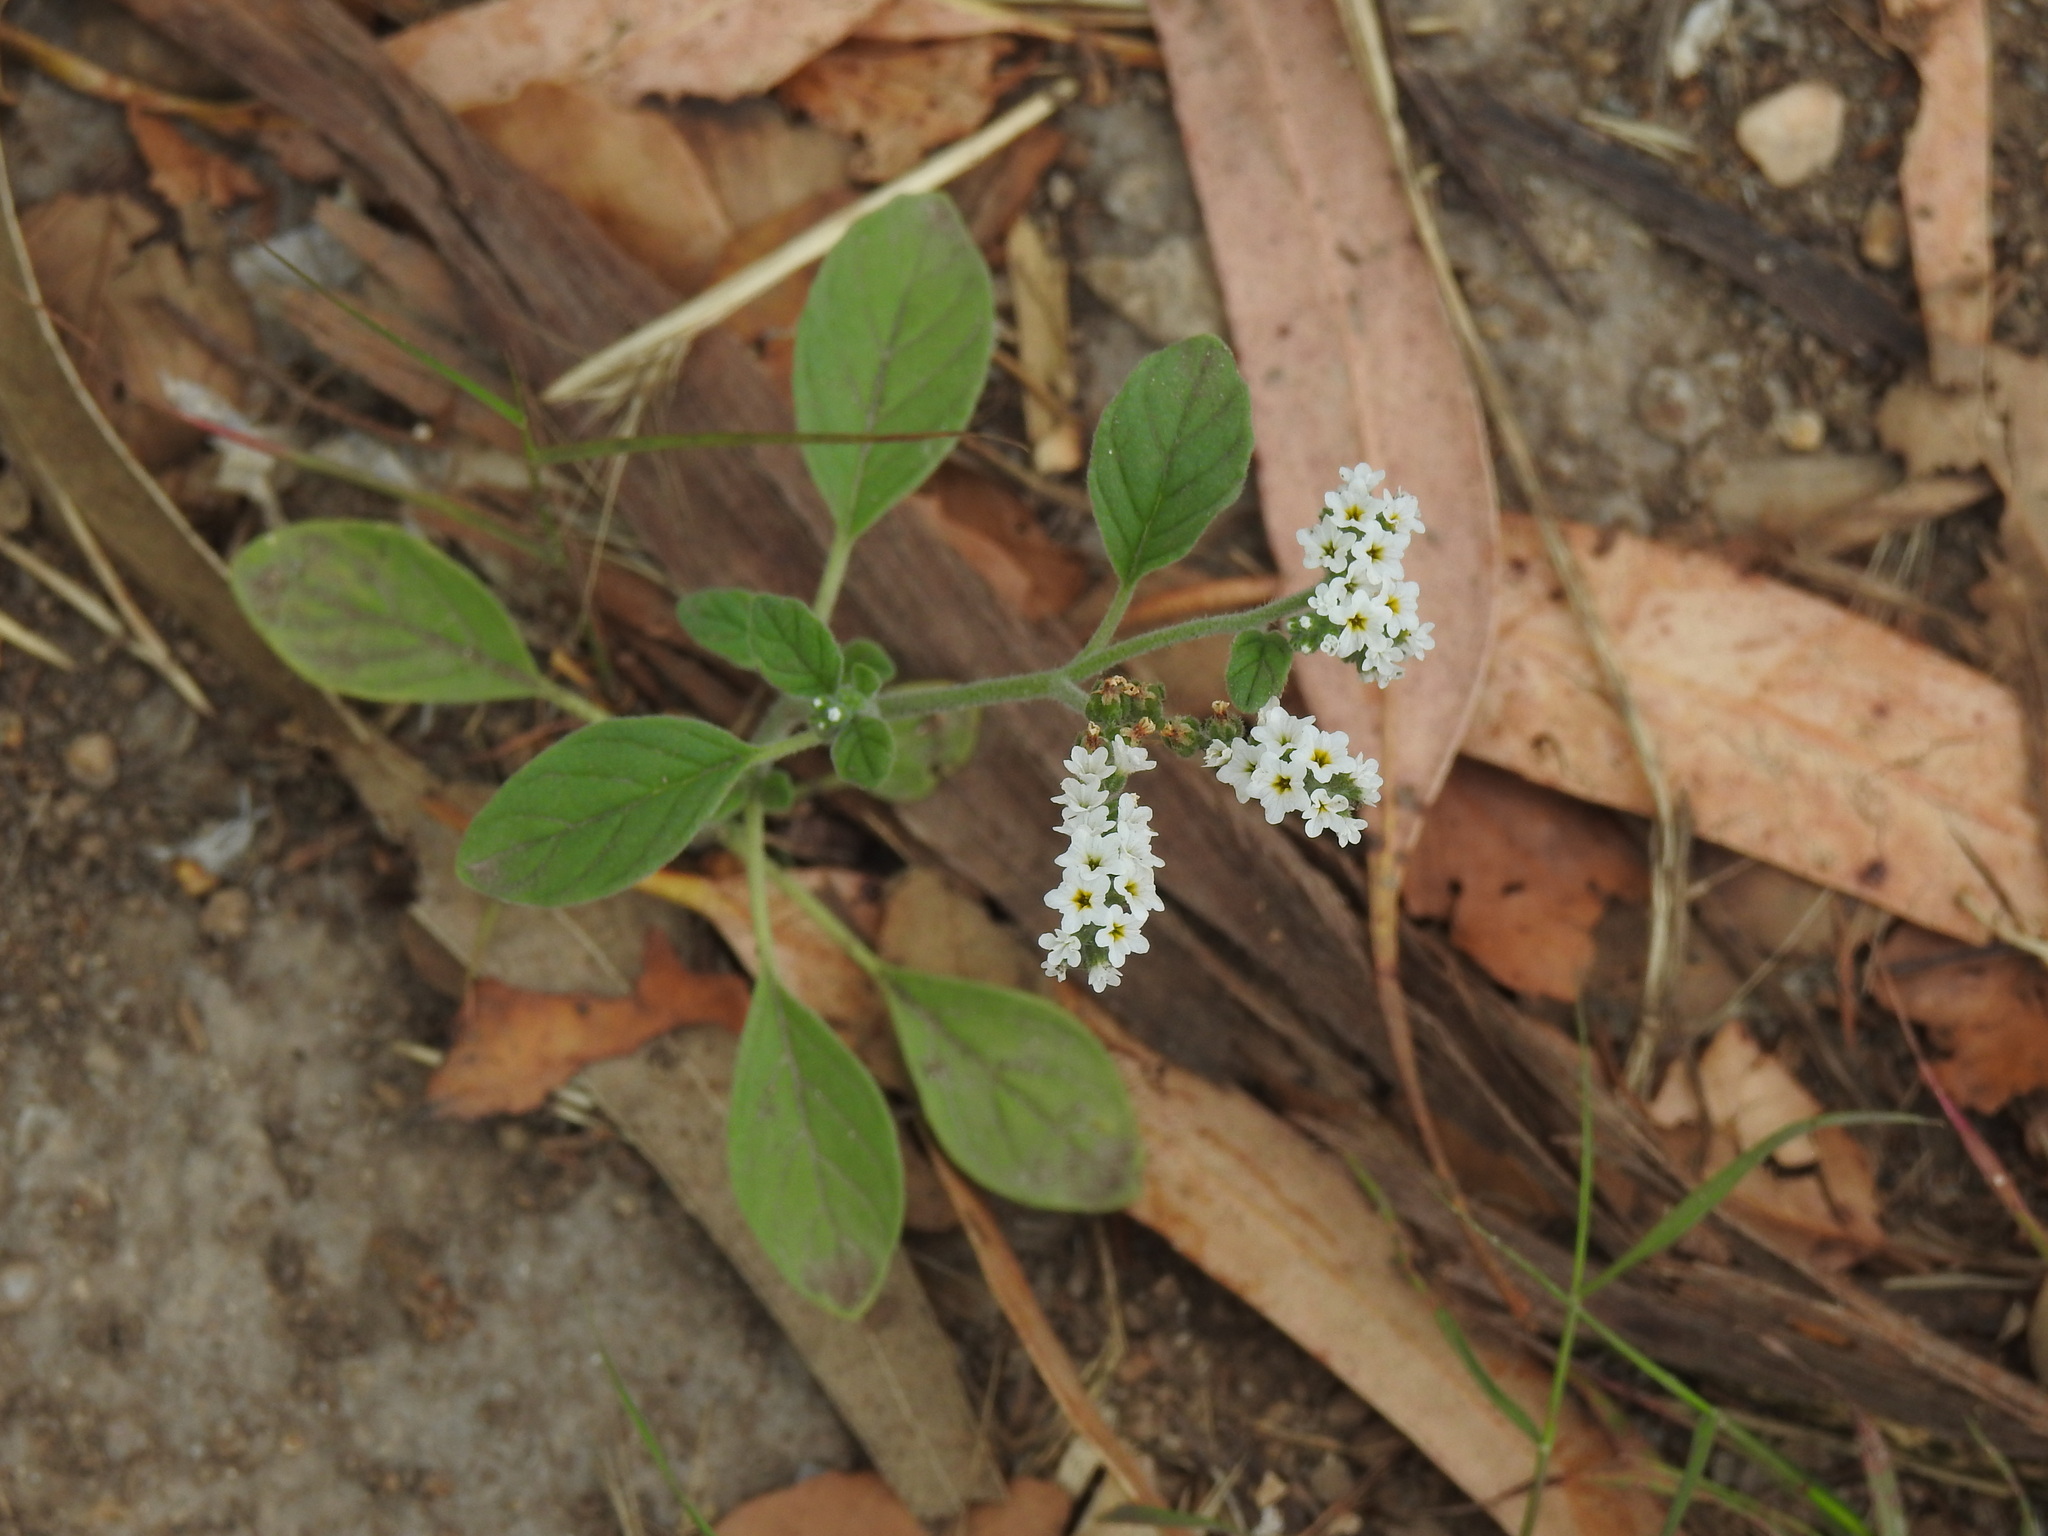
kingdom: Plantae
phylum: Tracheophyta
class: Magnoliopsida
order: Boraginales
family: Heliotropiaceae
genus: Heliotropium
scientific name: Heliotropium europaeum
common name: European heliotrope
